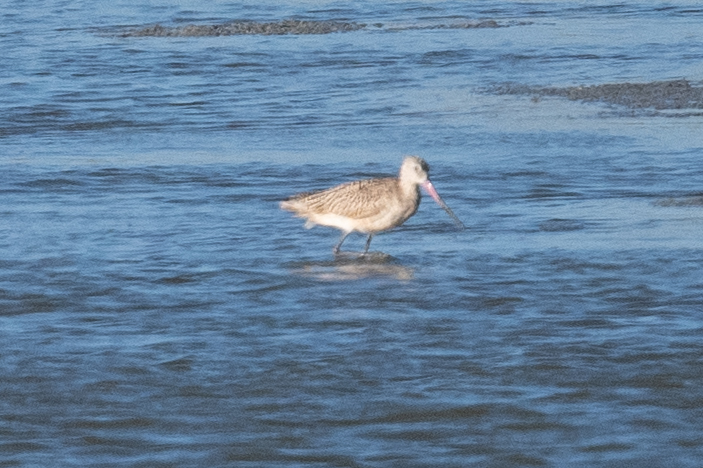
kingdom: Animalia
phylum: Chordata
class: Aves
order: Charadriiformes
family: Scolopacidae
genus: Limosa
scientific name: Limosa fedoa
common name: Marbled godwit
